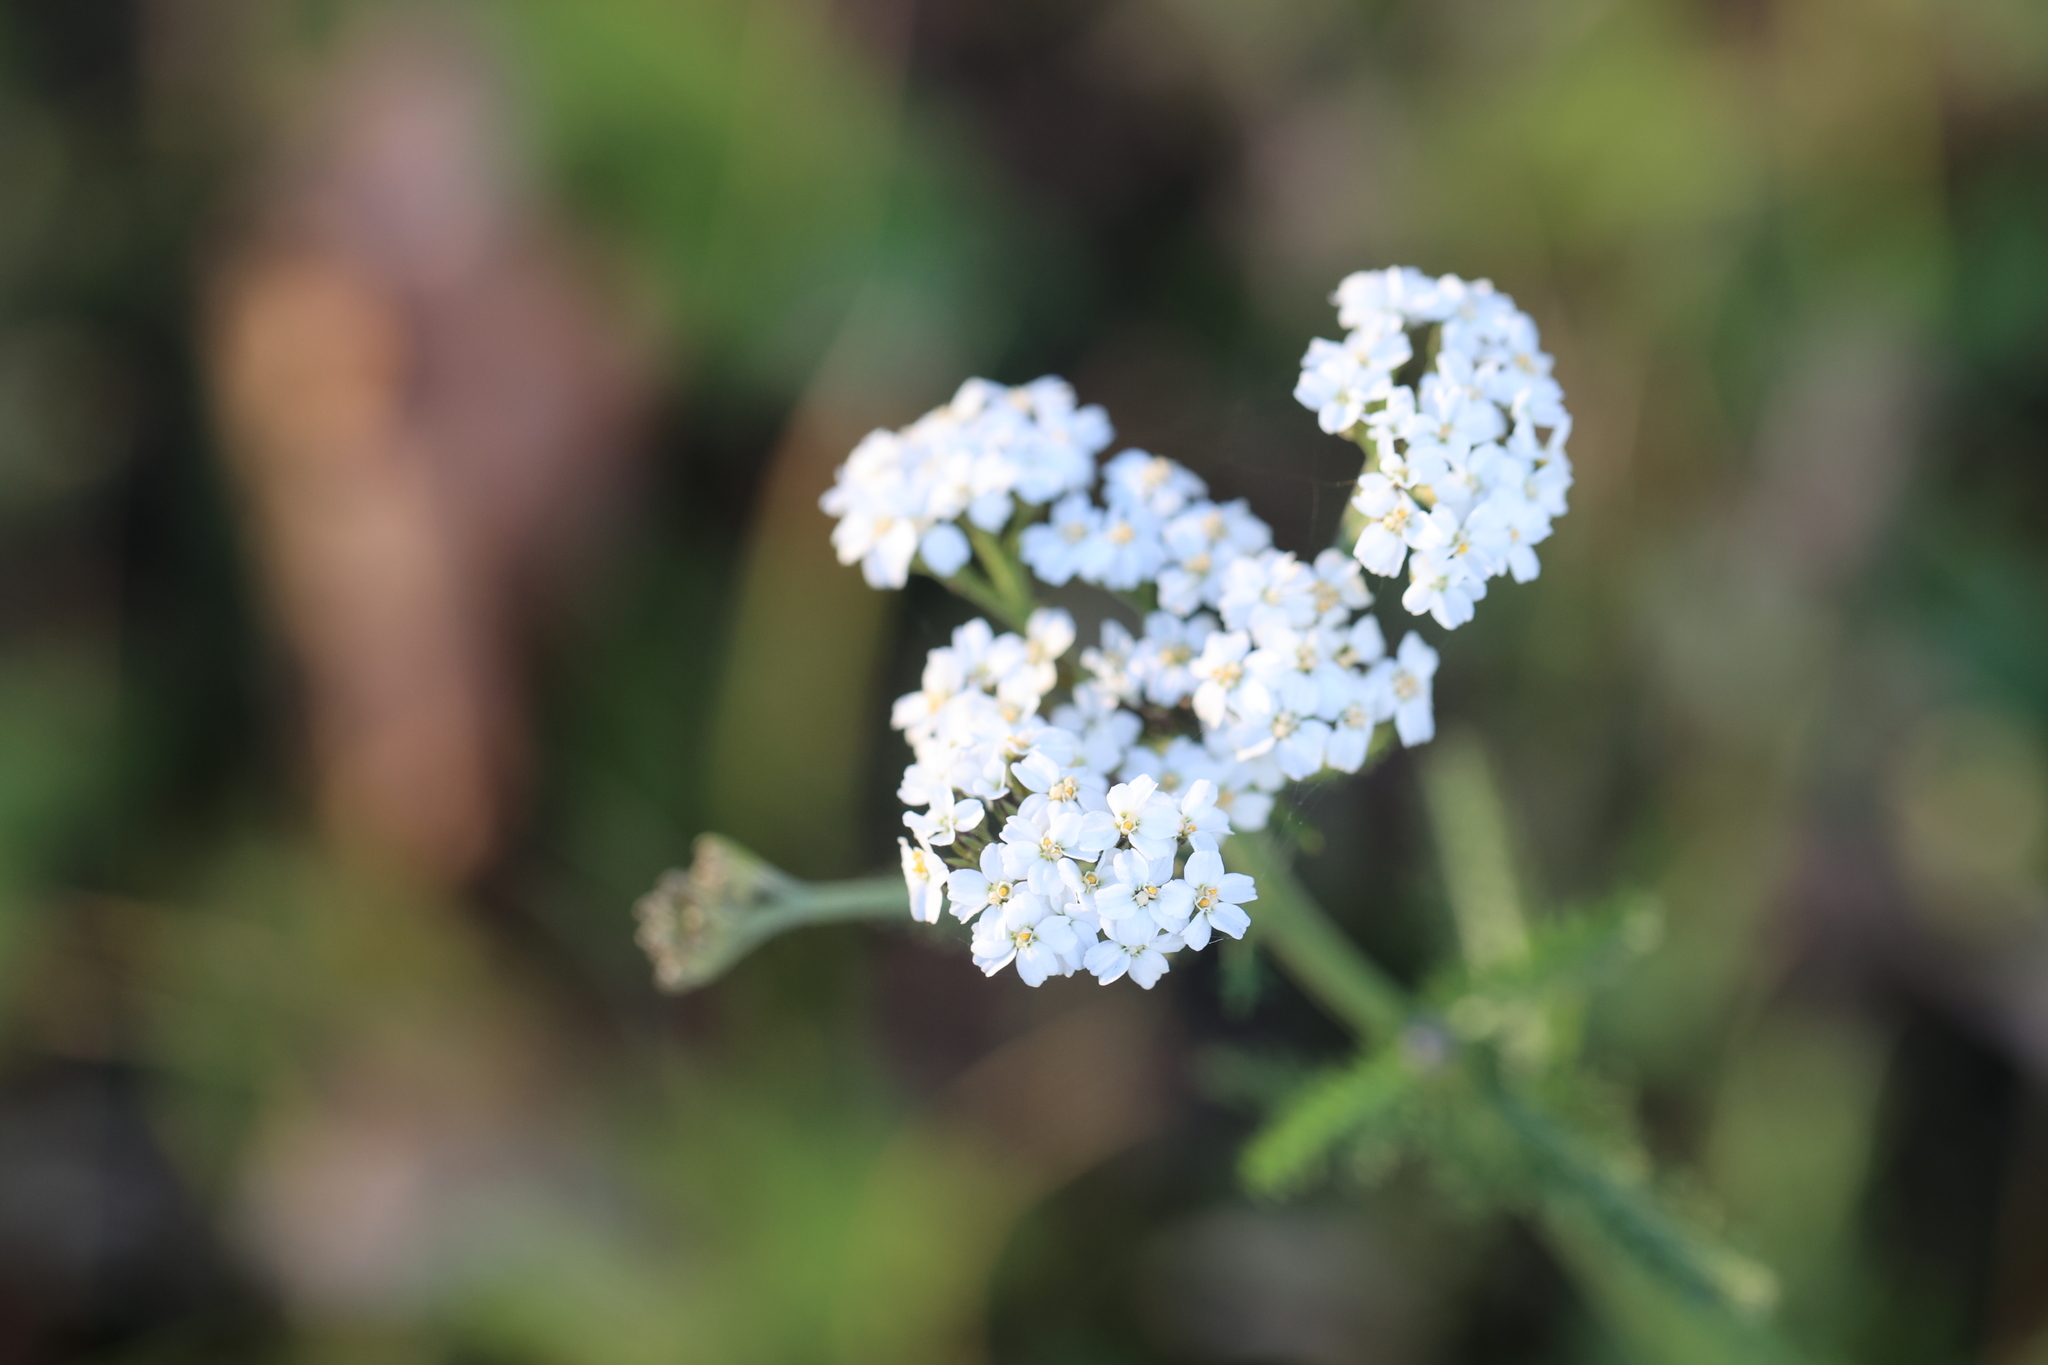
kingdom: Plantae
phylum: Tracheophyta
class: Magnoliopsida
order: Asterales
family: Asteraceae
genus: Achillea
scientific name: Achillea millefolium
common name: Yarrow
